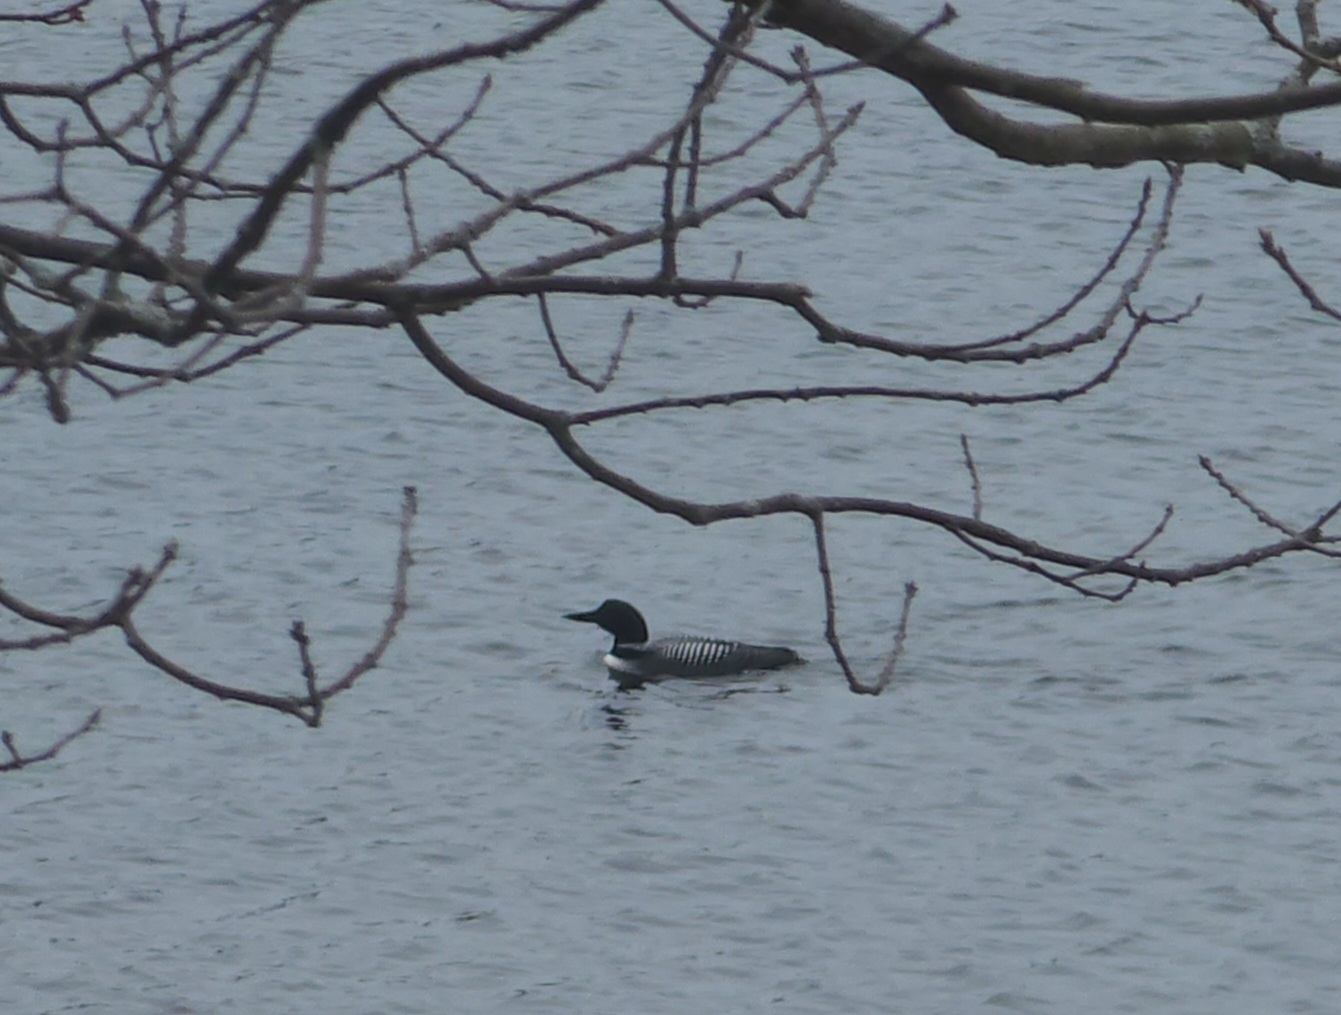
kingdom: Animalia
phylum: Chordata
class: Aves
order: Gaviiformes
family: Gaviidae
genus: Gavia
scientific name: Gavia immer
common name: Common loon
